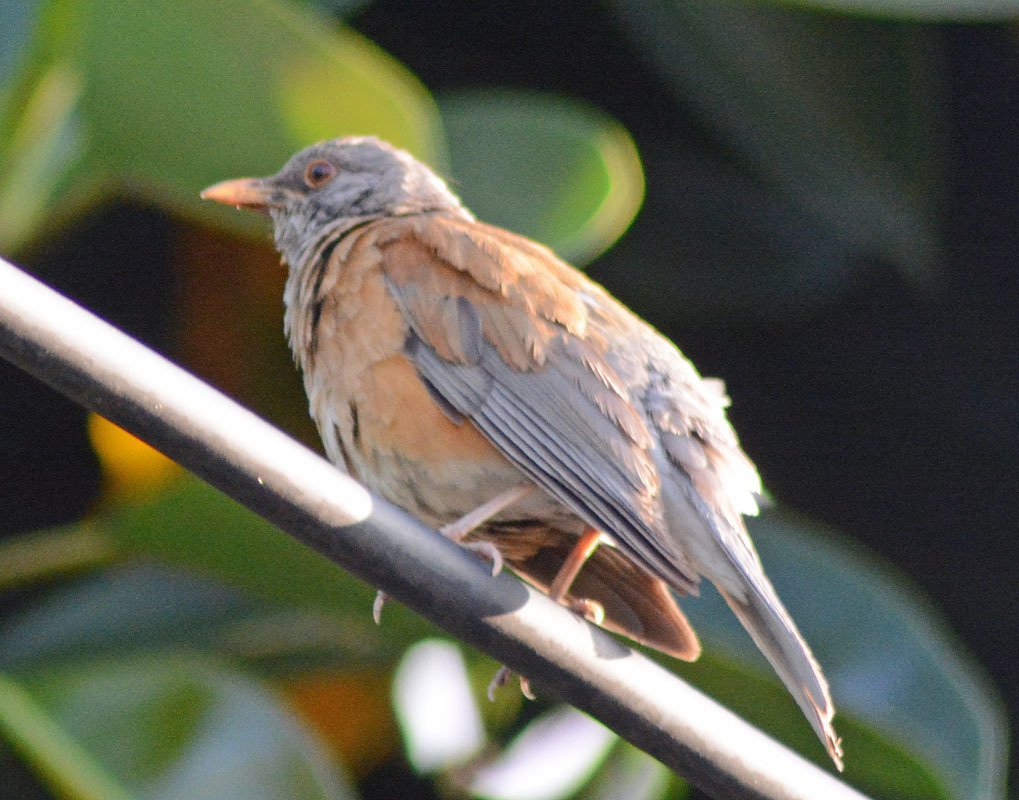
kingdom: Animalia
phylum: Chordata
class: Aves
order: Passeriformes
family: Turdidae
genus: Turdus
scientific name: Turdus rufopalliatus
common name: Rufous-backed robin
